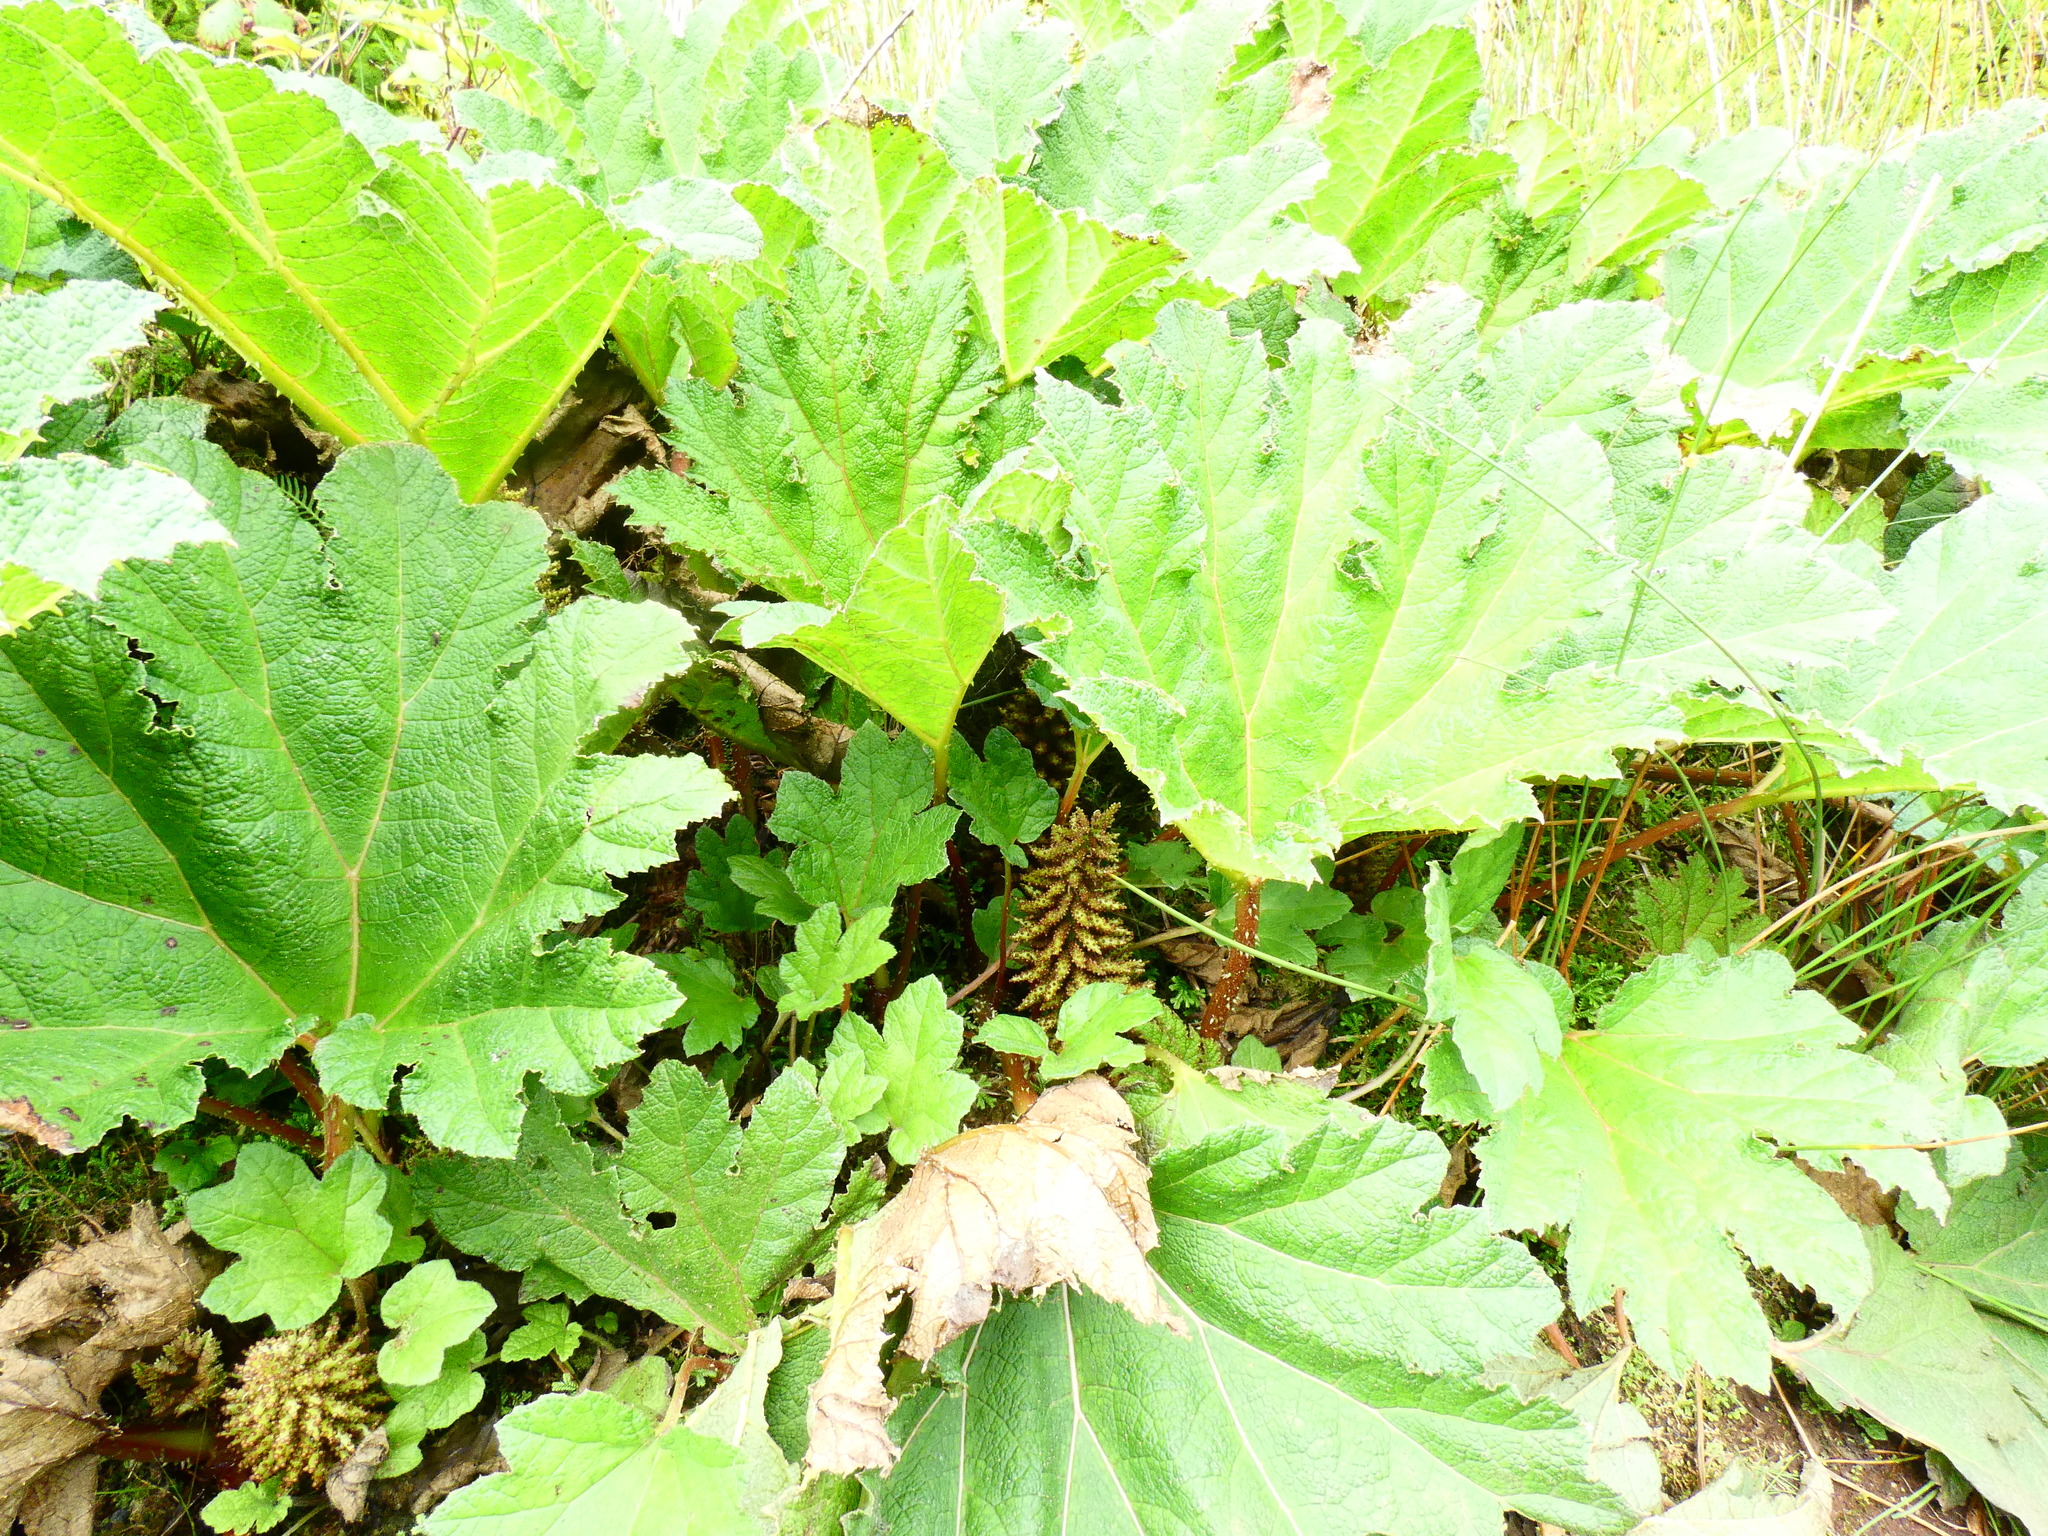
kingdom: Plantae
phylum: Tracheophyta
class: Magnoliopsida
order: Gunnerales
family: Gunneraceae
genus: Gunnera
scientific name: Gunnera tinctoria
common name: Giant-rhubarb
